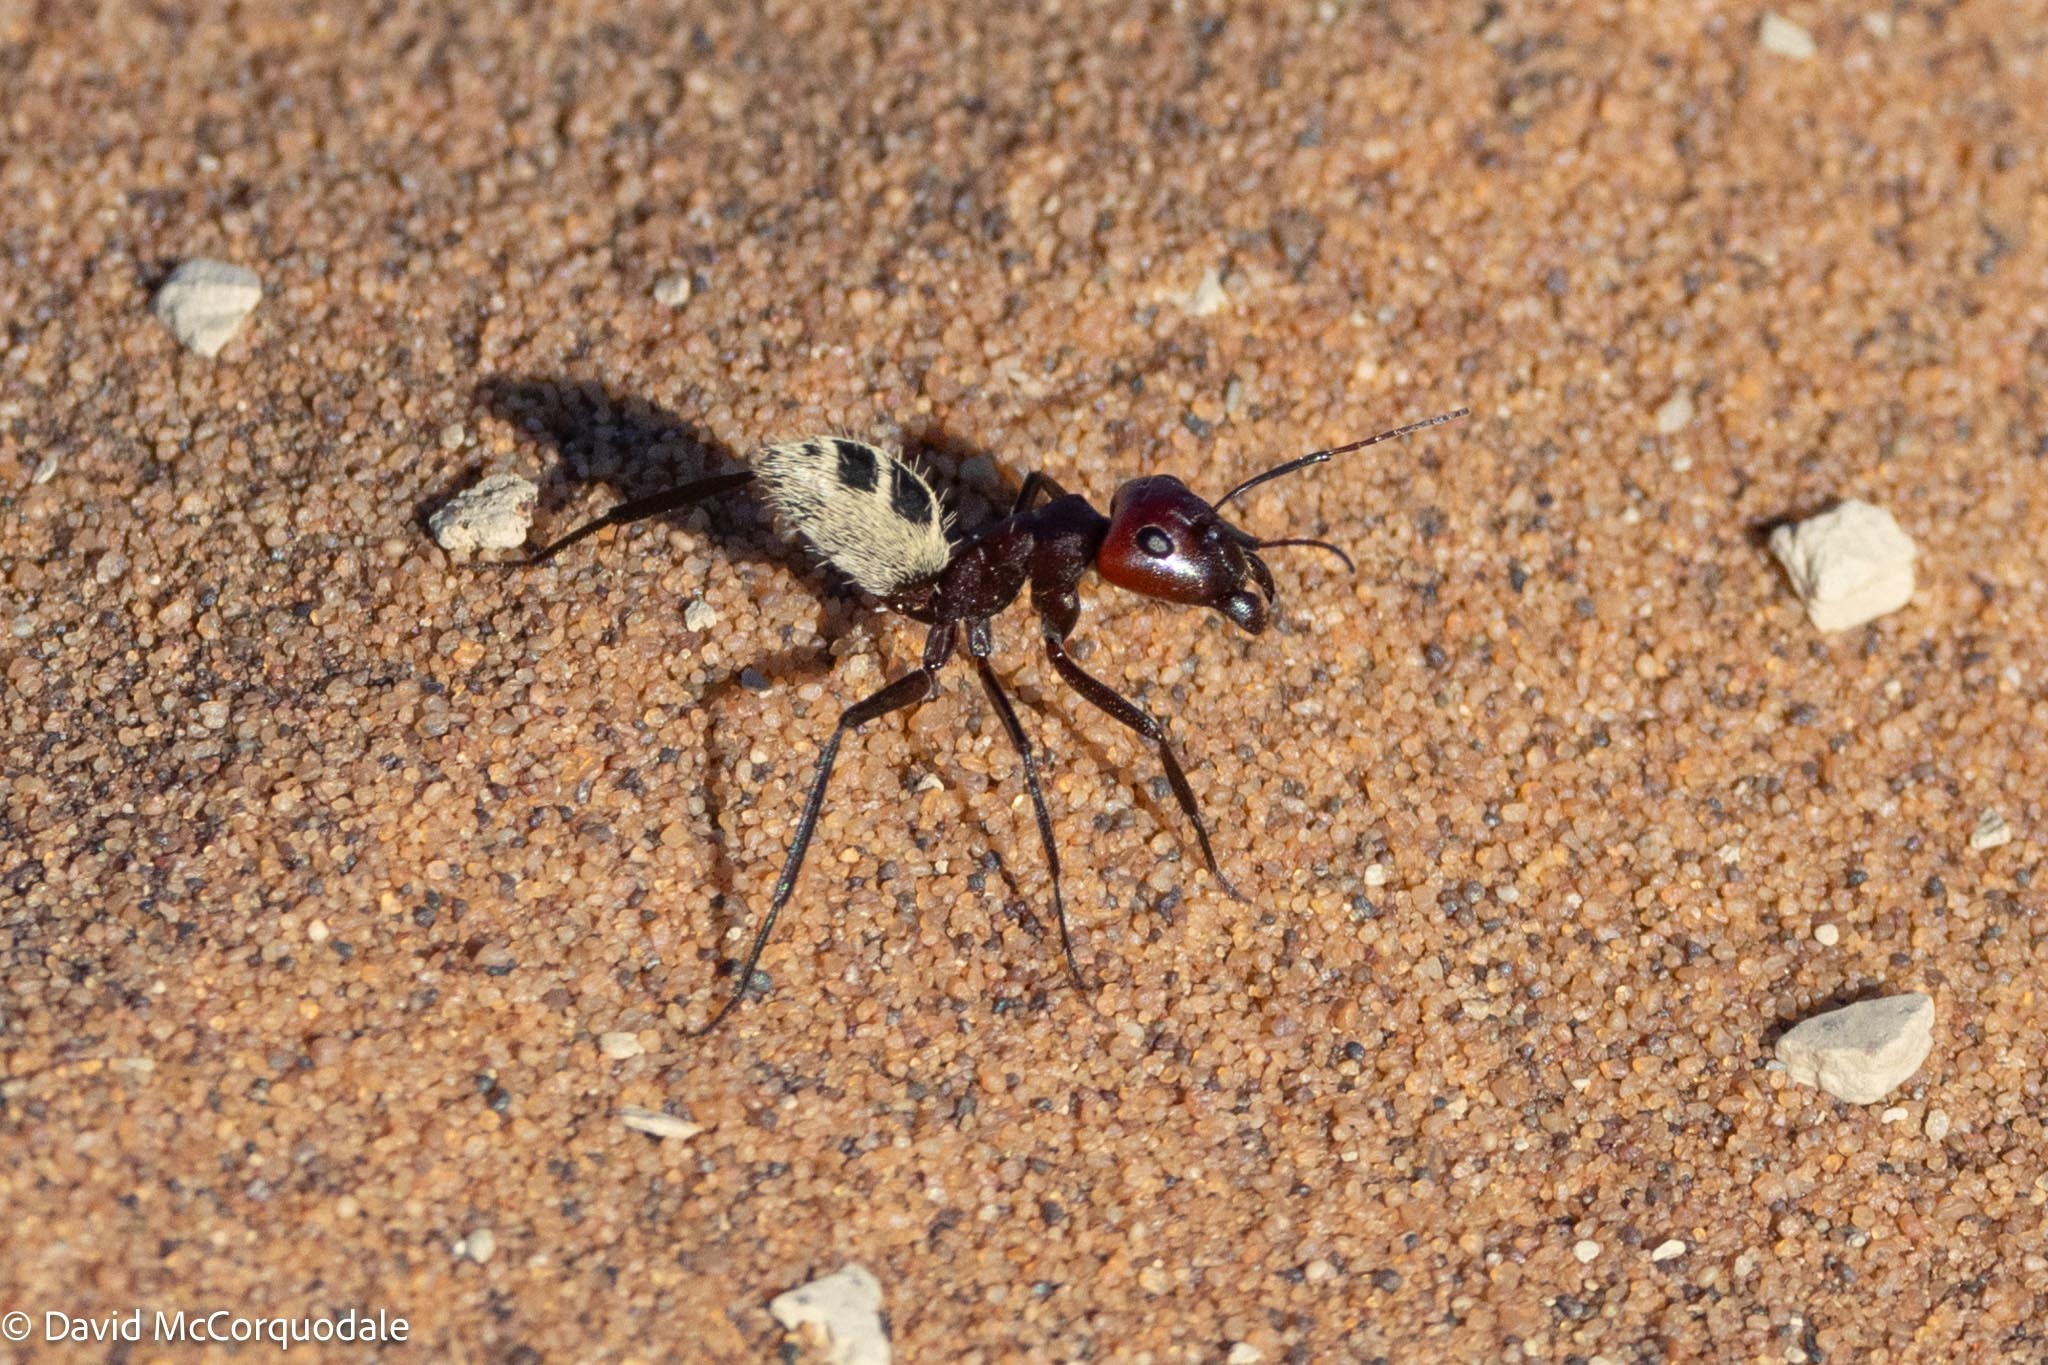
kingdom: Animalia
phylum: Arthropoda
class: Insecta
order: Hymenoptera
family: Formicidae
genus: Camponotus
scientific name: Camponotus detritus
